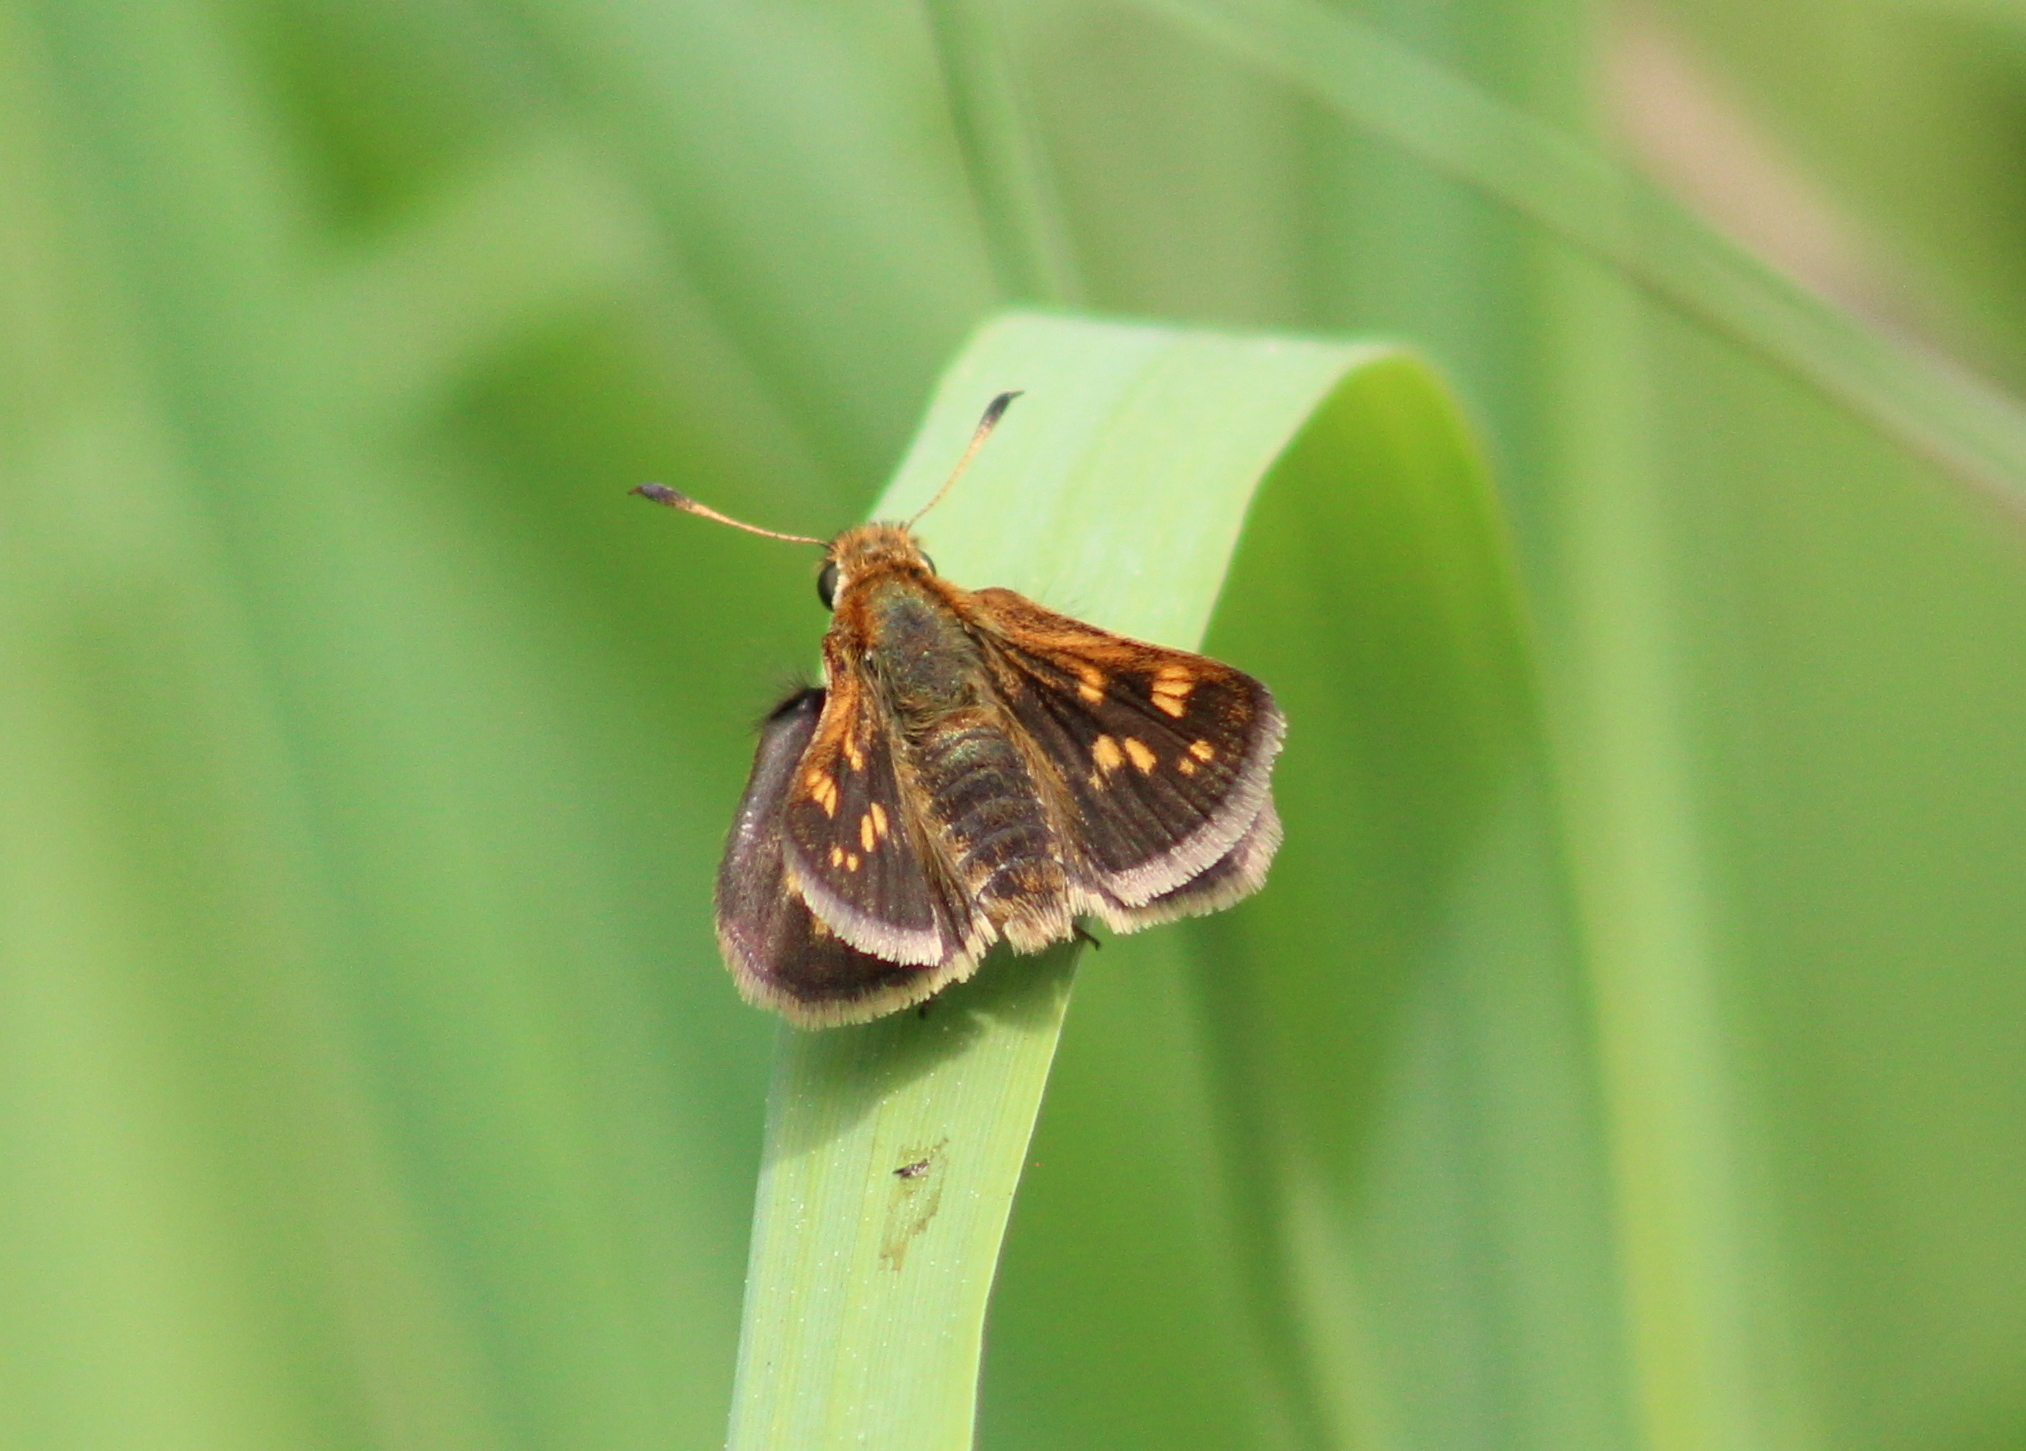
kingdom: Animalia
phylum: Arthropoda
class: Insecta
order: Lepidoptera
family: Hesperiidae
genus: Polites
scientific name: Polites coras
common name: Peck's skipper
